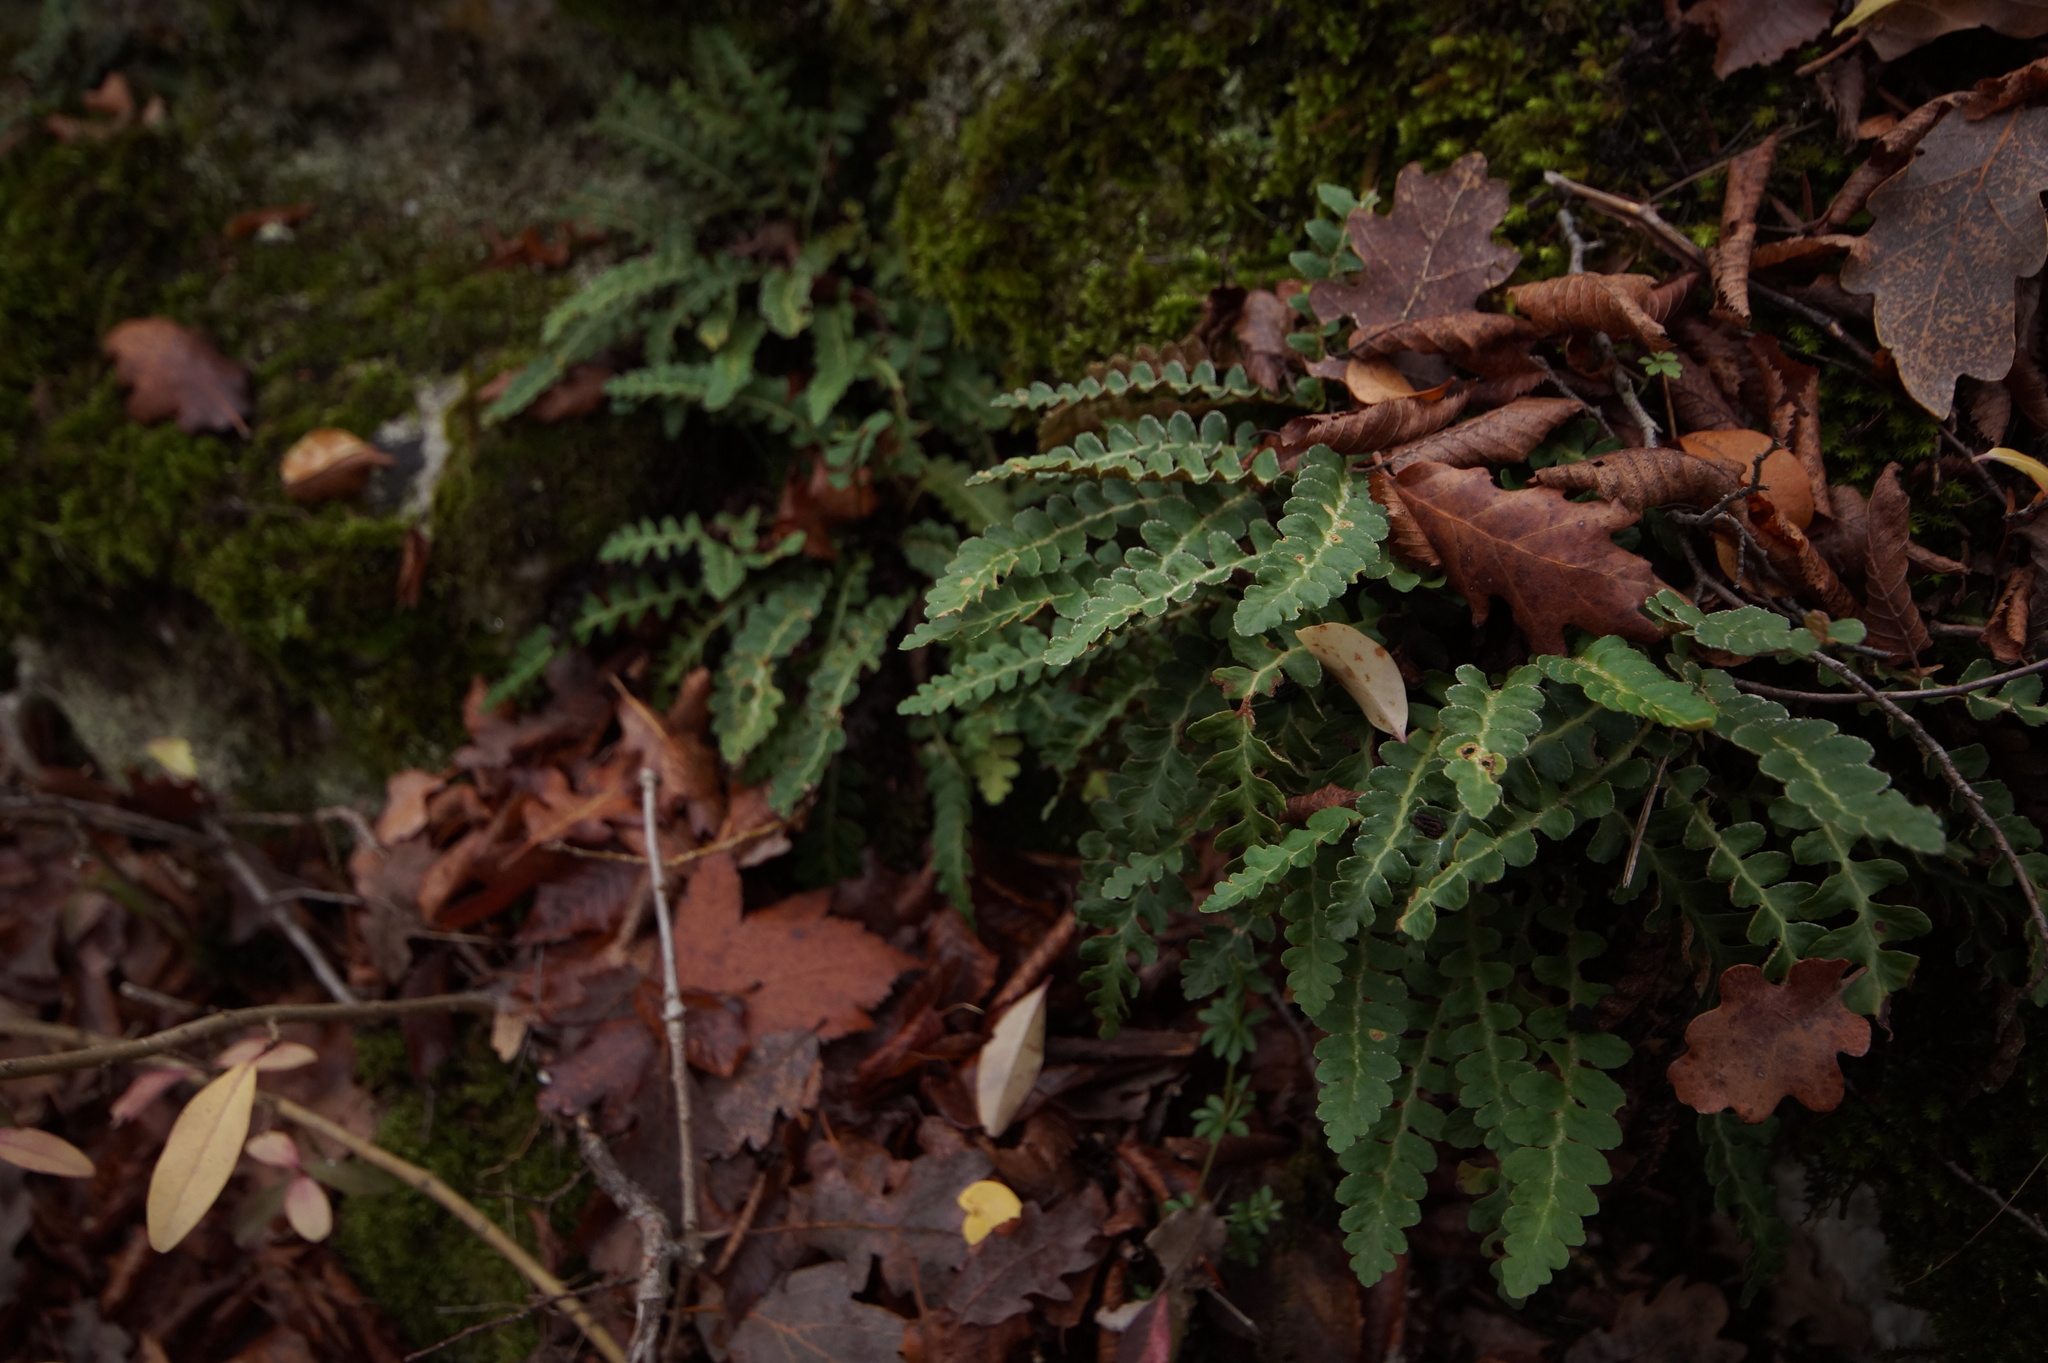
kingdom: Plantae
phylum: Tracheophyta
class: Polypodiopsida
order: Polypodiales
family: Aspleniaceae
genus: Asplenium
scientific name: Asplenium ceterach
